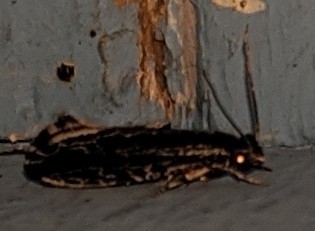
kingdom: Animalia
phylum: Arthropoda
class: Insecta
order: Lepidoptera
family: Tineidae
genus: Nemapogon
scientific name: Nemapogon
